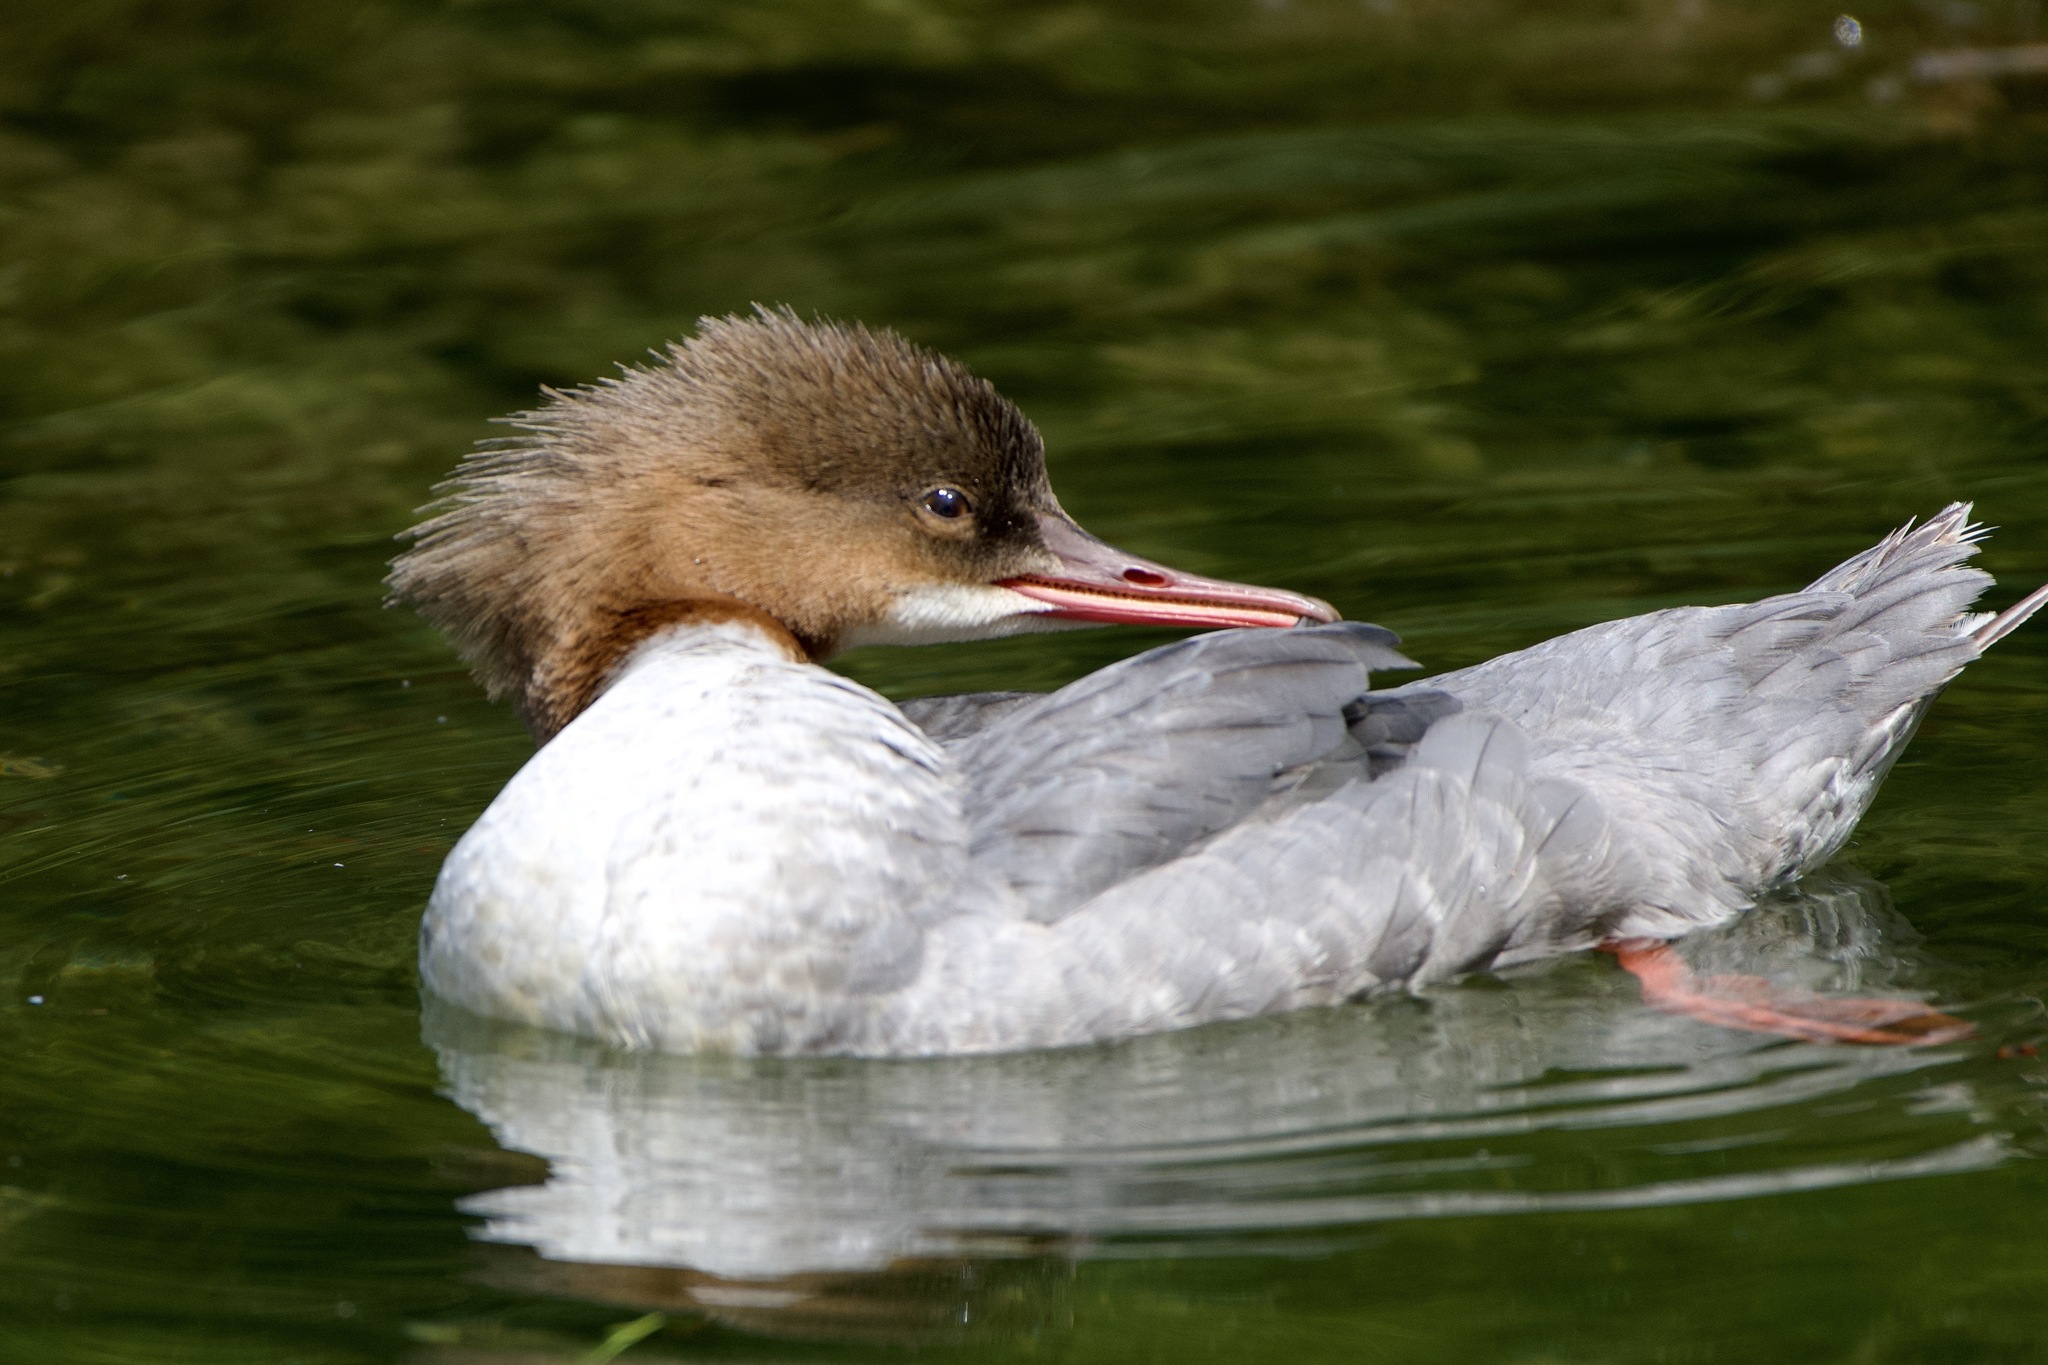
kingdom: Animalia
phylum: Chordata
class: Aves
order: Anseriformes
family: Anatidae
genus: Mergus
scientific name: Mergus merganser
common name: Common merganser
